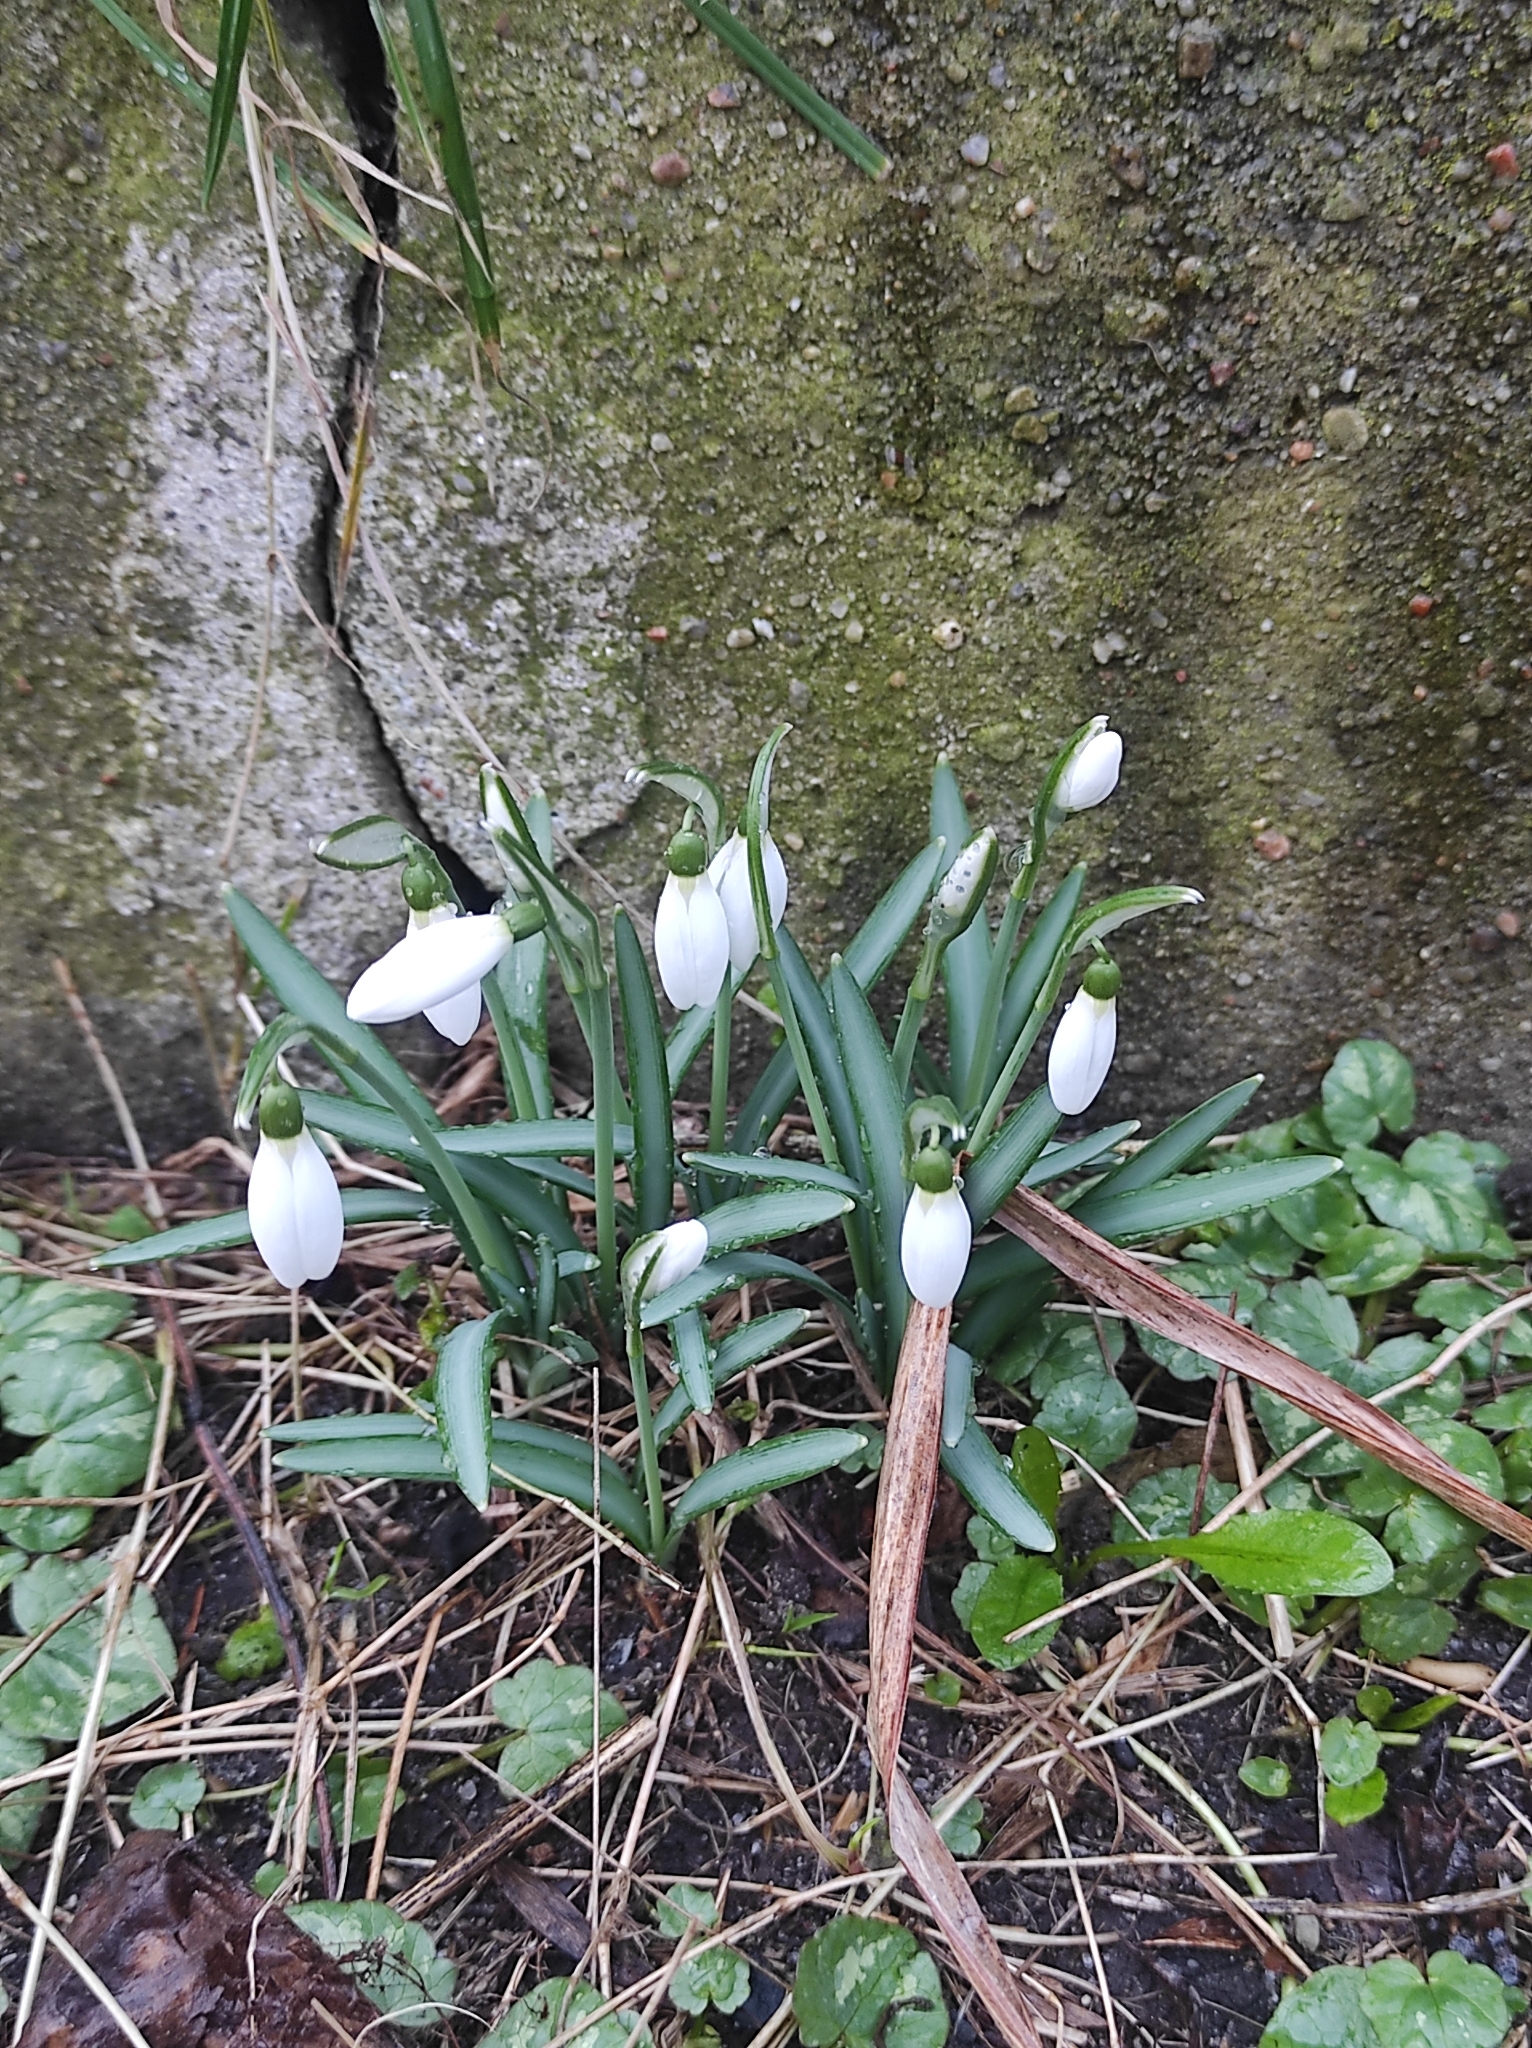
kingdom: Plantae
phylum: Tracheophyta
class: Liliopsida
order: Asparagales
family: Amaryllidaceae
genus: Galanthus
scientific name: Galanthus nivalis
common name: Snowdrop
